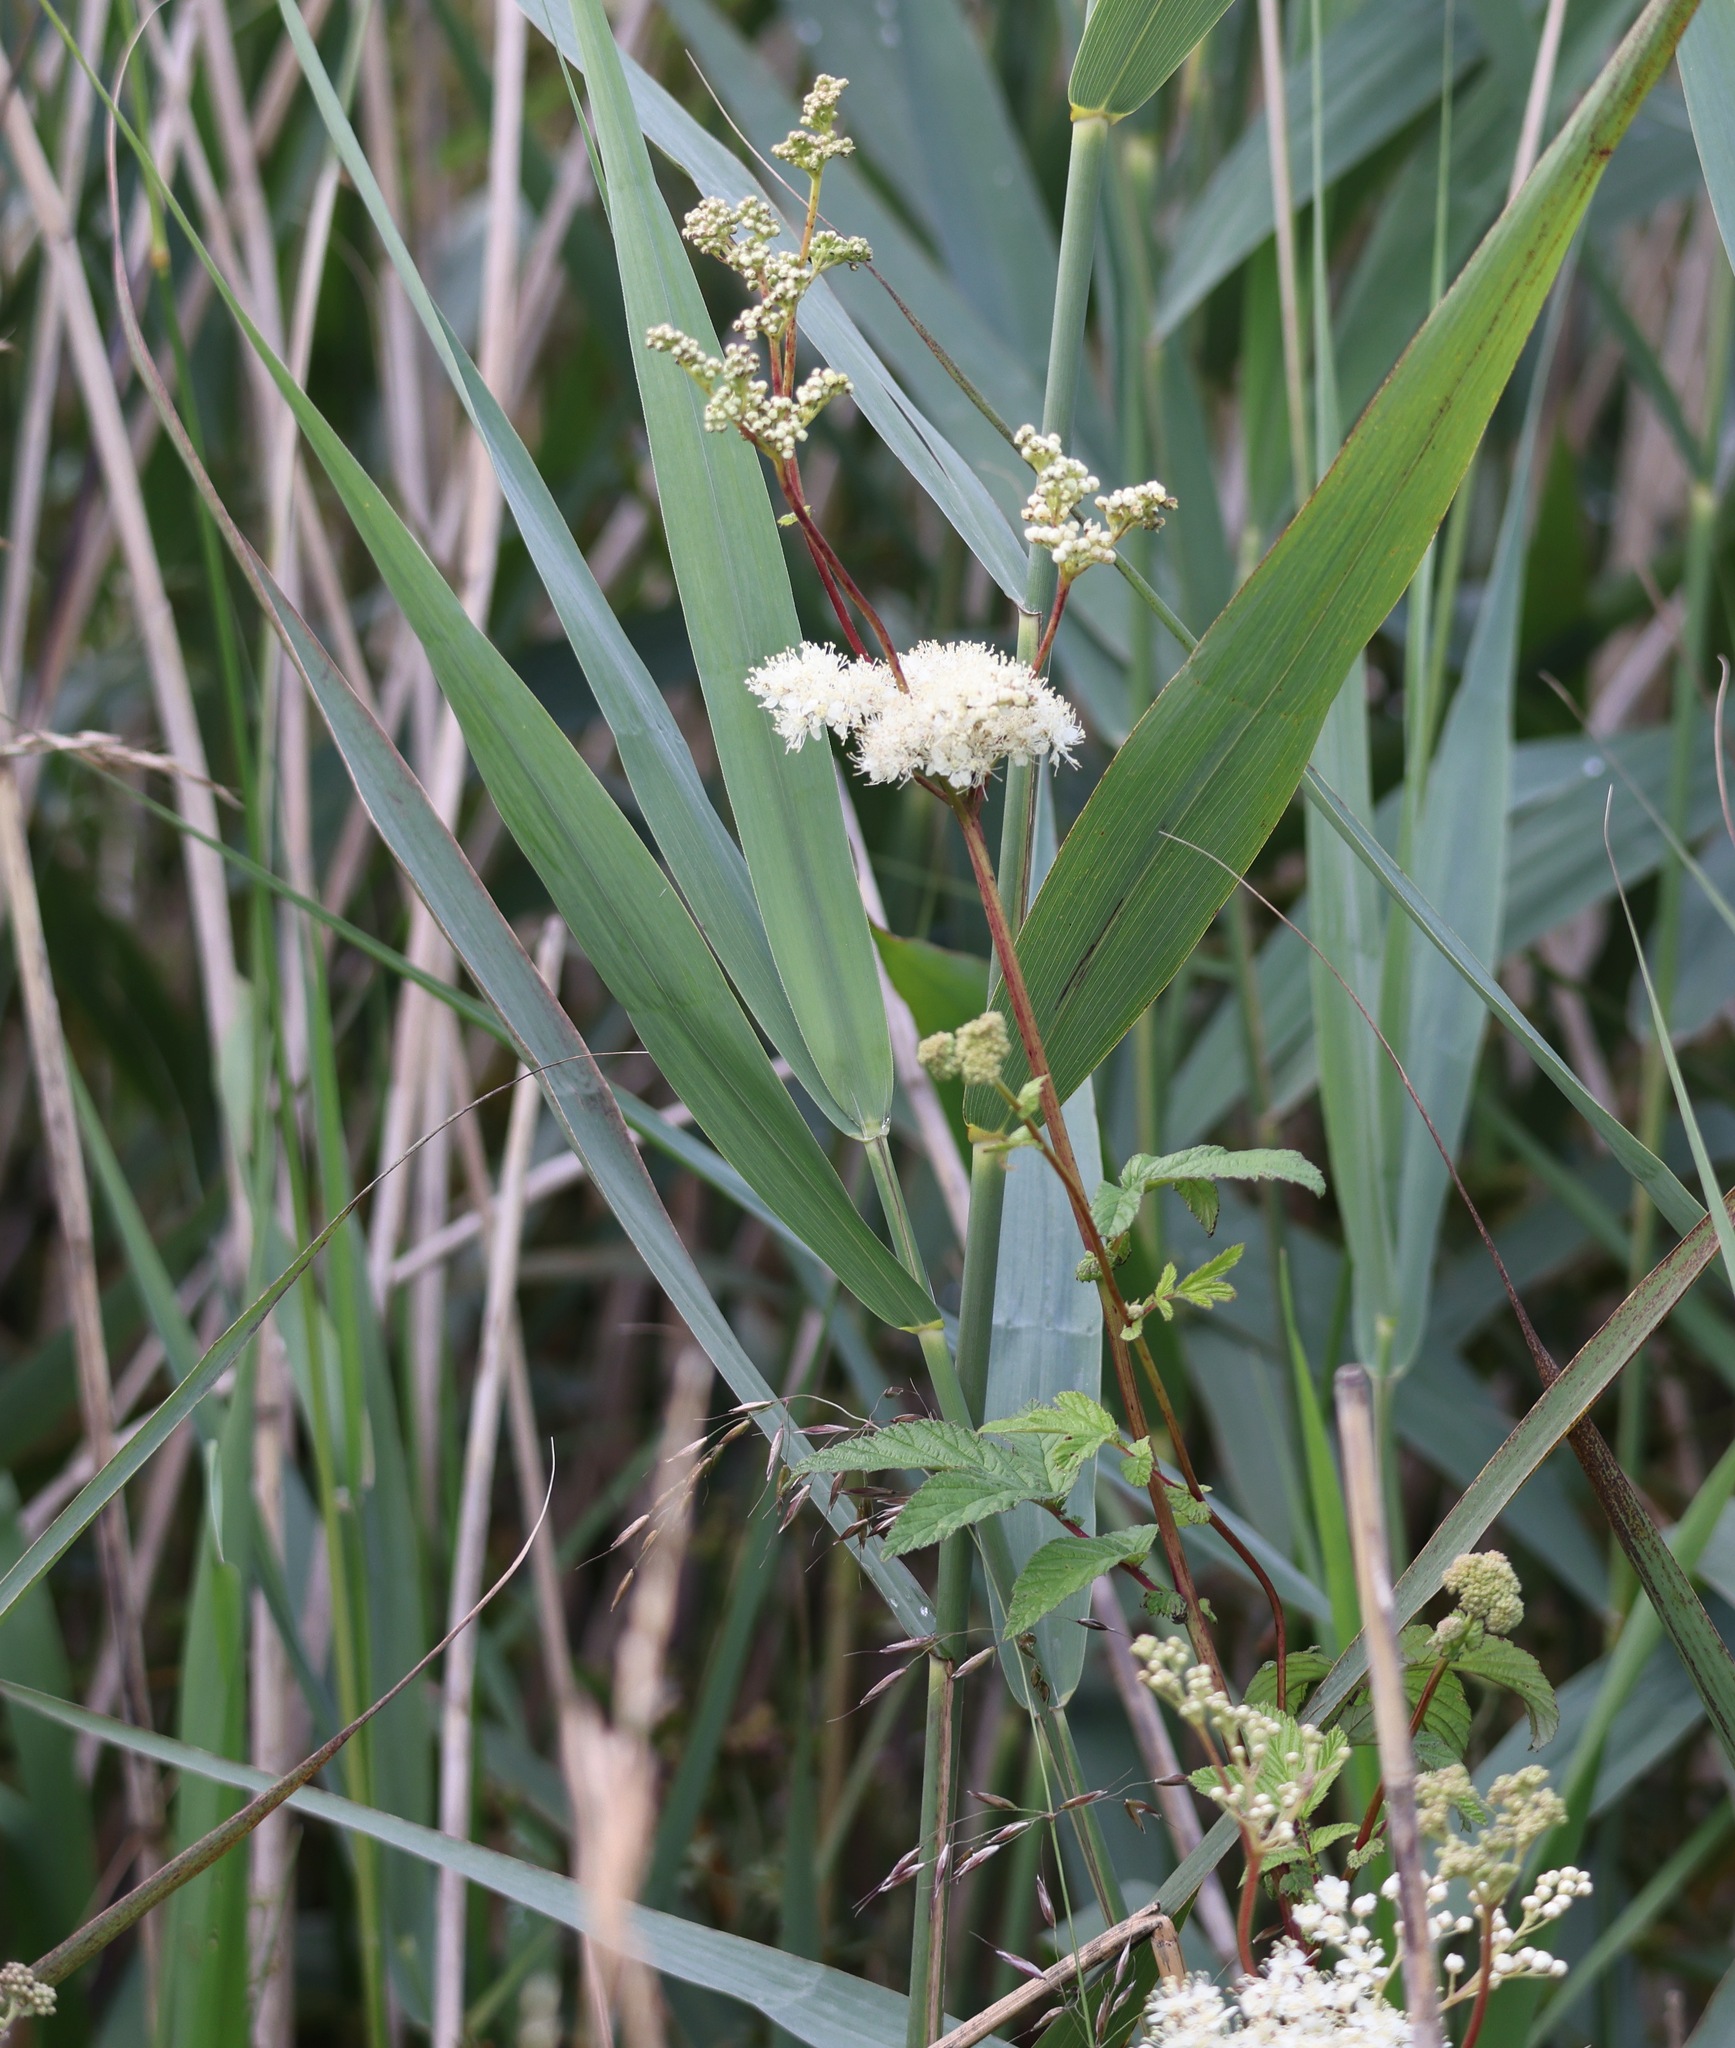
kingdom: Plantae
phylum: Tracheophyta
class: Magnoliopsida
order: Rosales
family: Rosaceae
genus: Filipendula
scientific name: Filipendula ulmaria
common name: Meadowsweet
